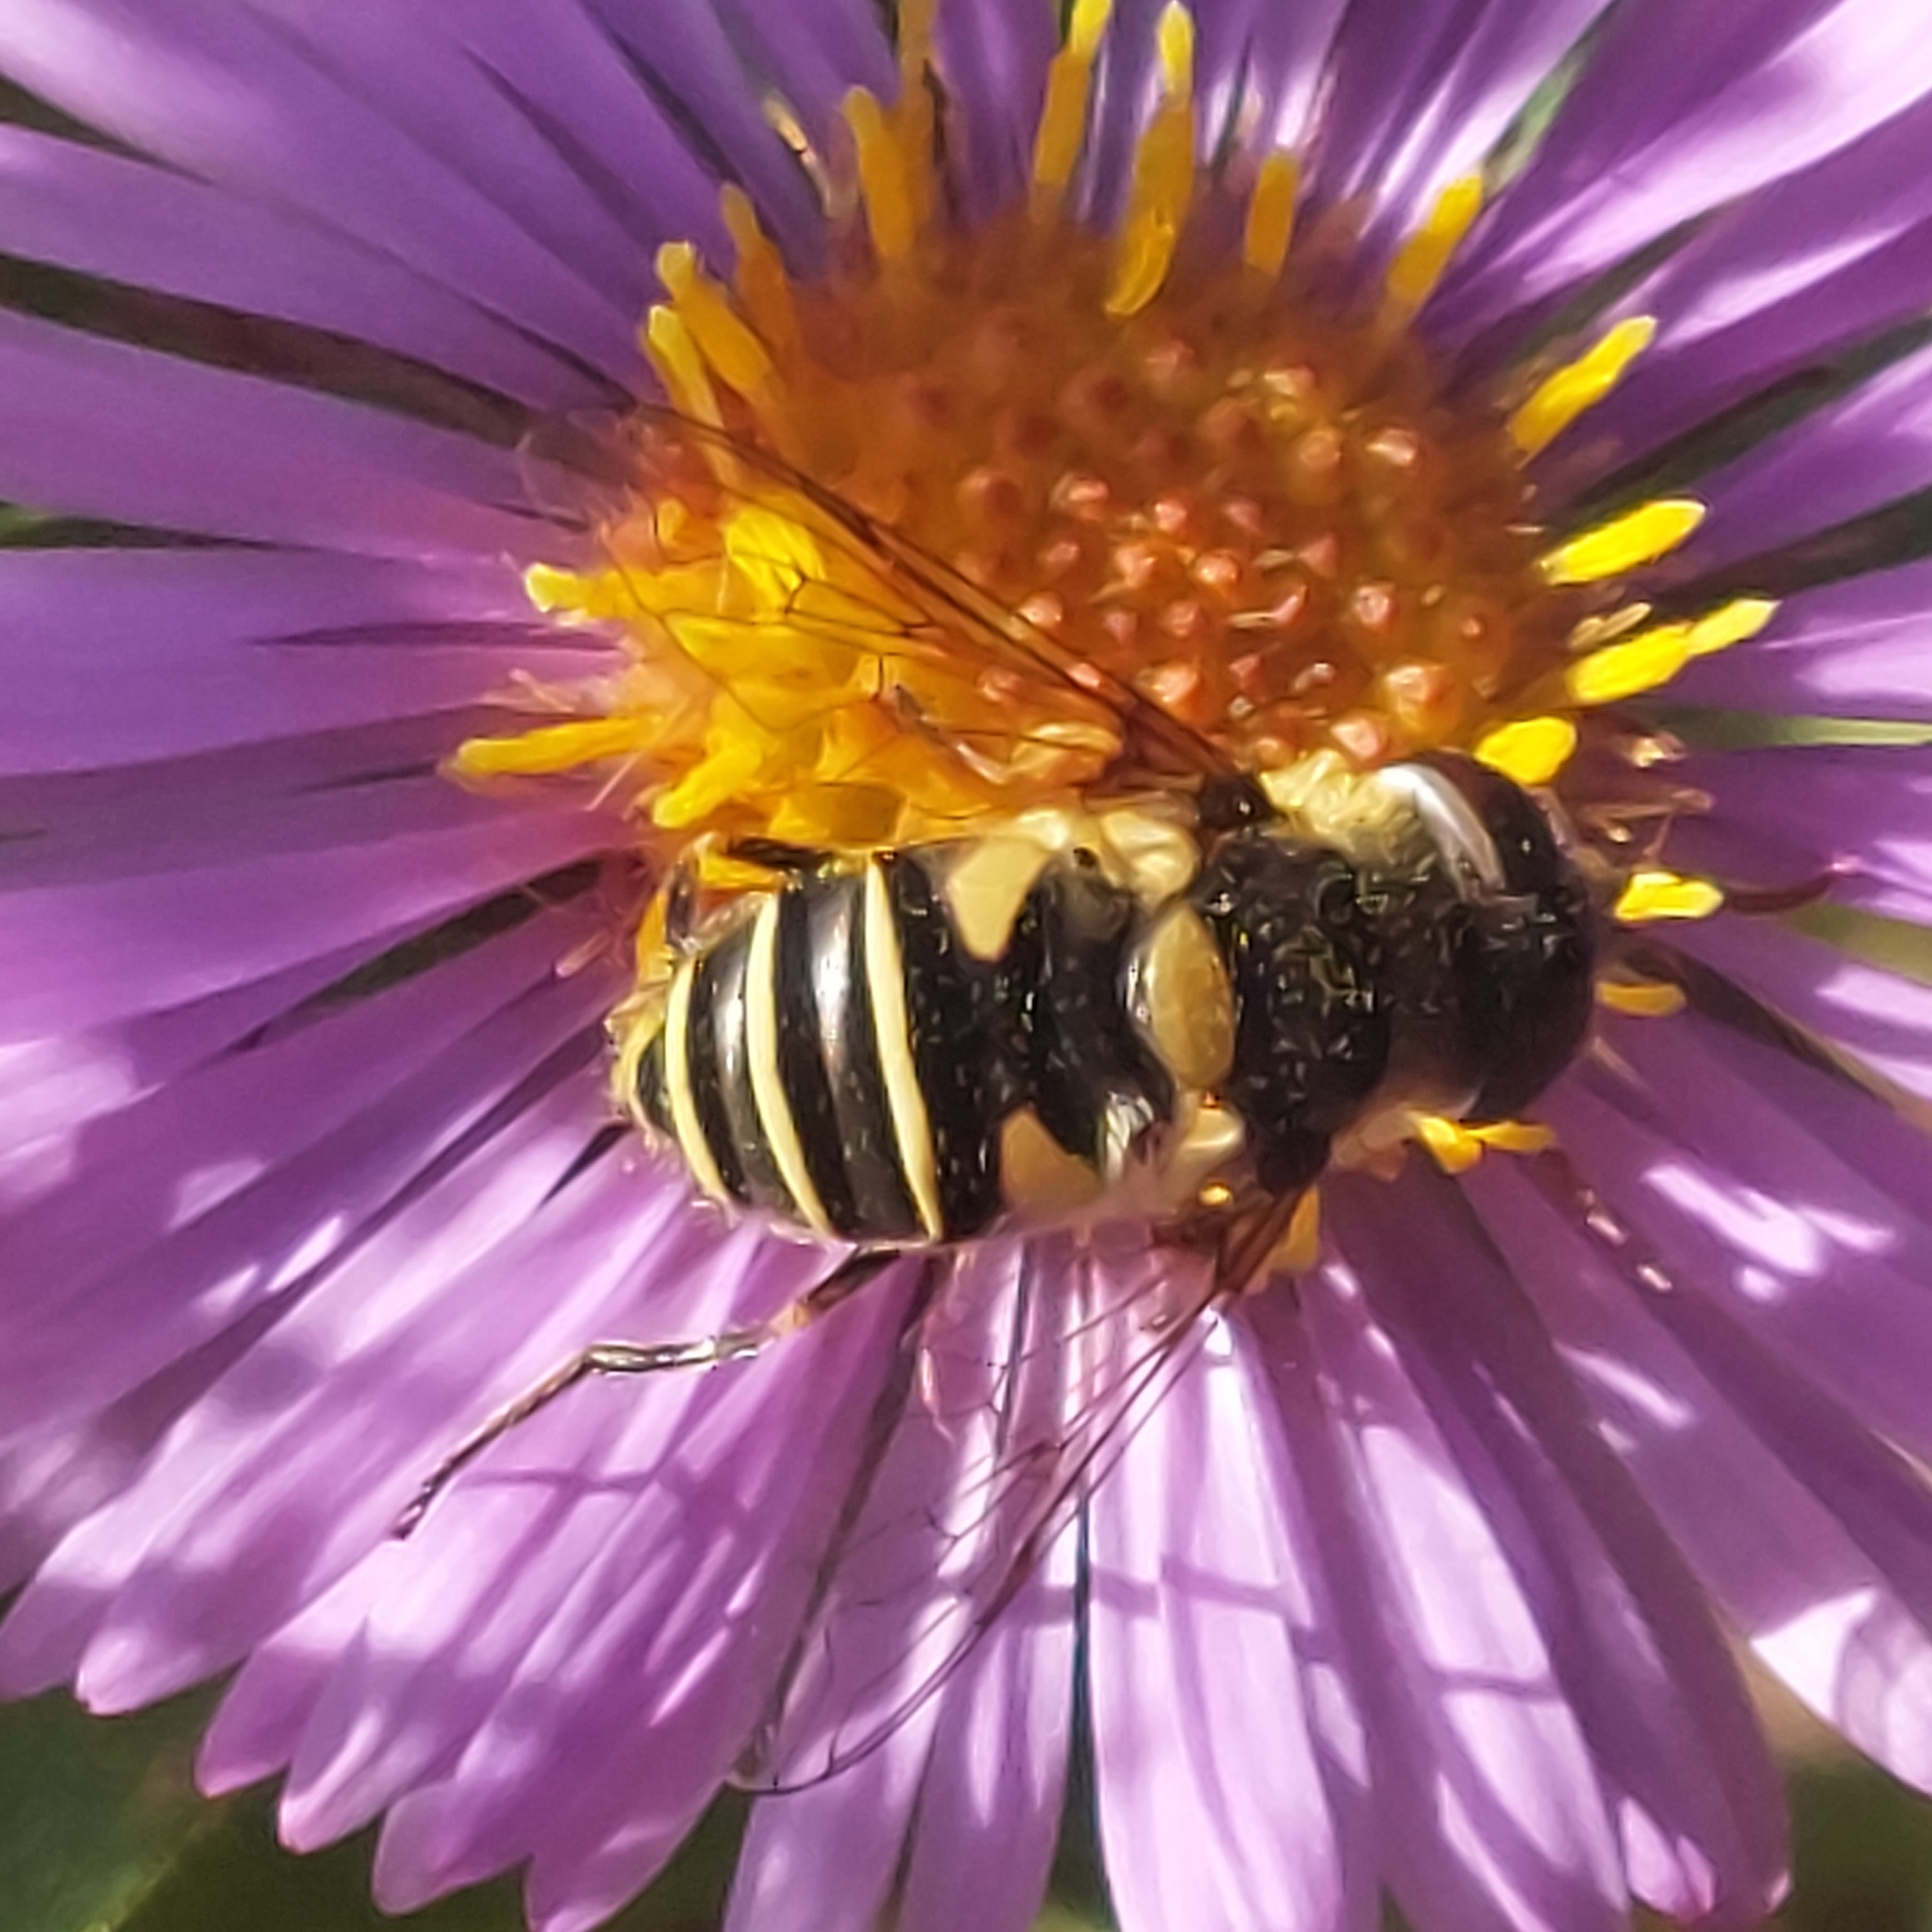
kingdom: Animalia
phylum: Arthropoda
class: Insecta
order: Diptera
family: Syrphidae
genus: Eristalis
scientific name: Eristalis transversa
